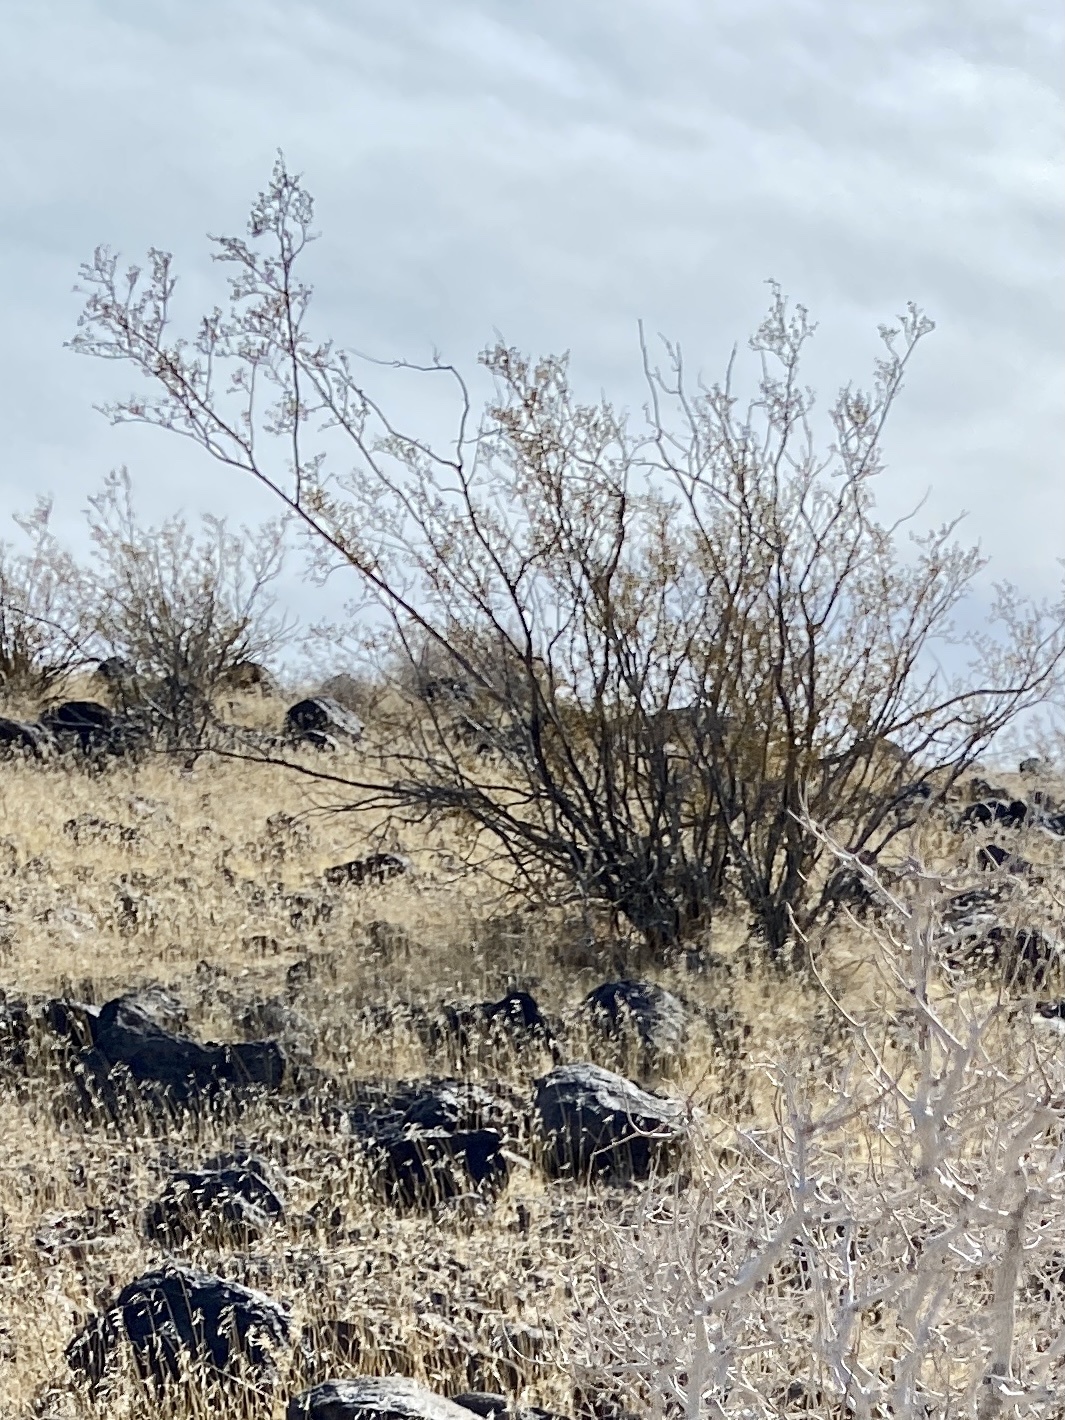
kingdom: Plantae
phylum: Tracheophyta
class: Magnoliopsida
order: Zygophyllales
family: Zygophyllaceae
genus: Larrea
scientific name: Larrea tridentata
